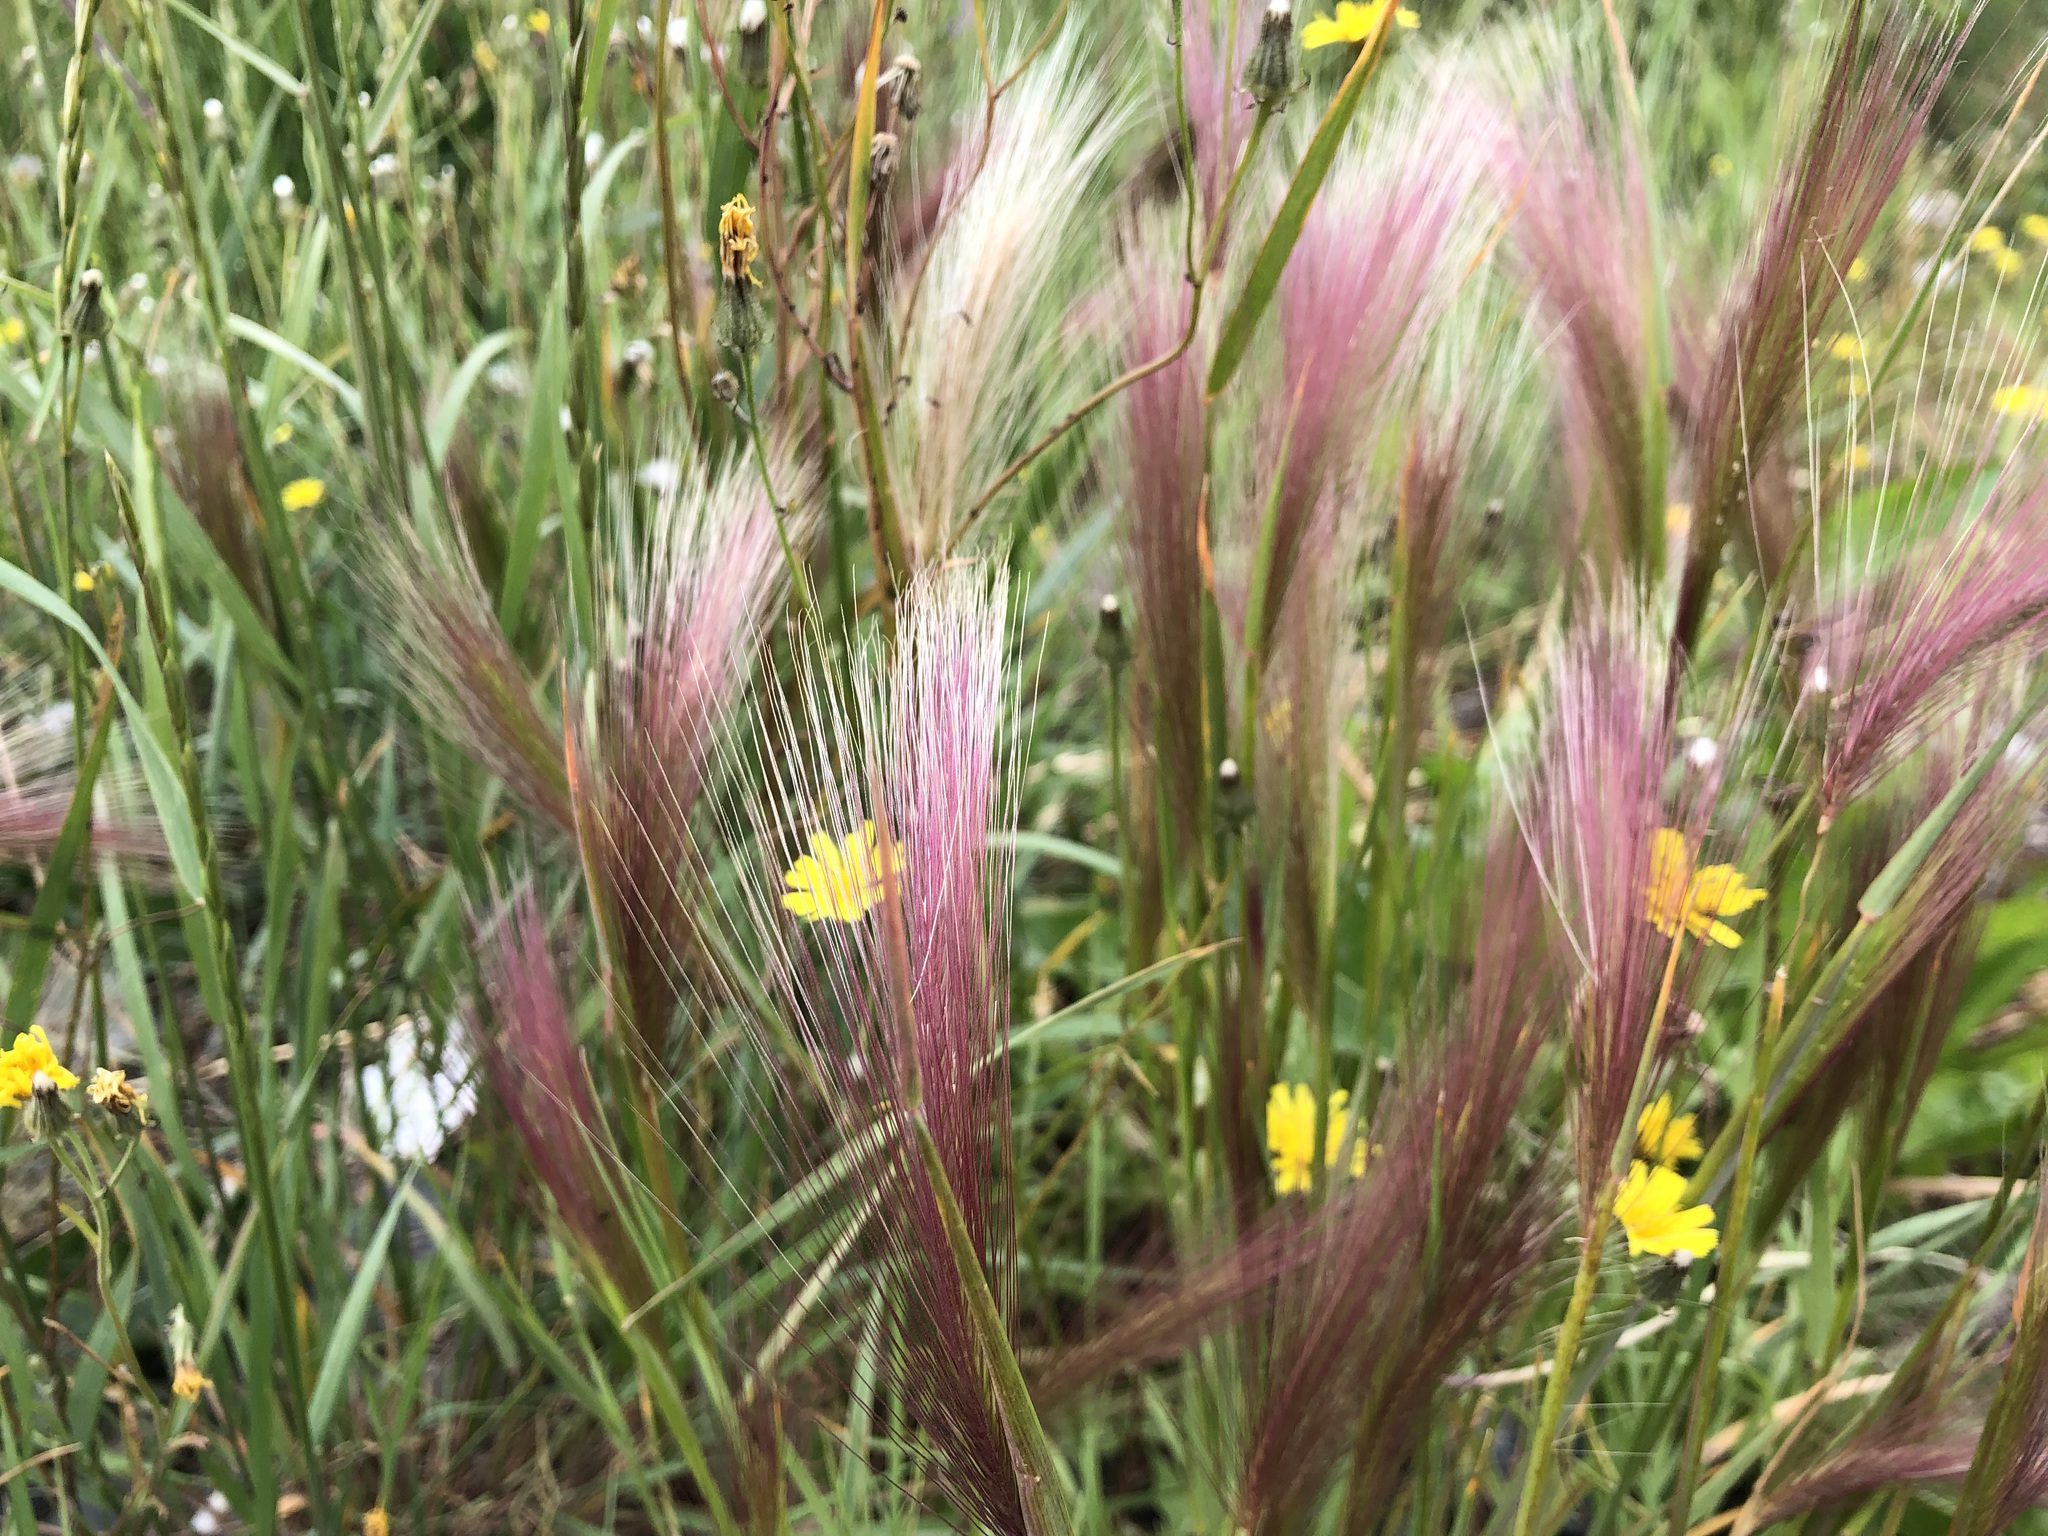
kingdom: Plantae
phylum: Tracheophyta
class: Liliopsida
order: Poales
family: Poaceae
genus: Hordeum
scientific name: Hordeum jubatum
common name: Foxtail barley
